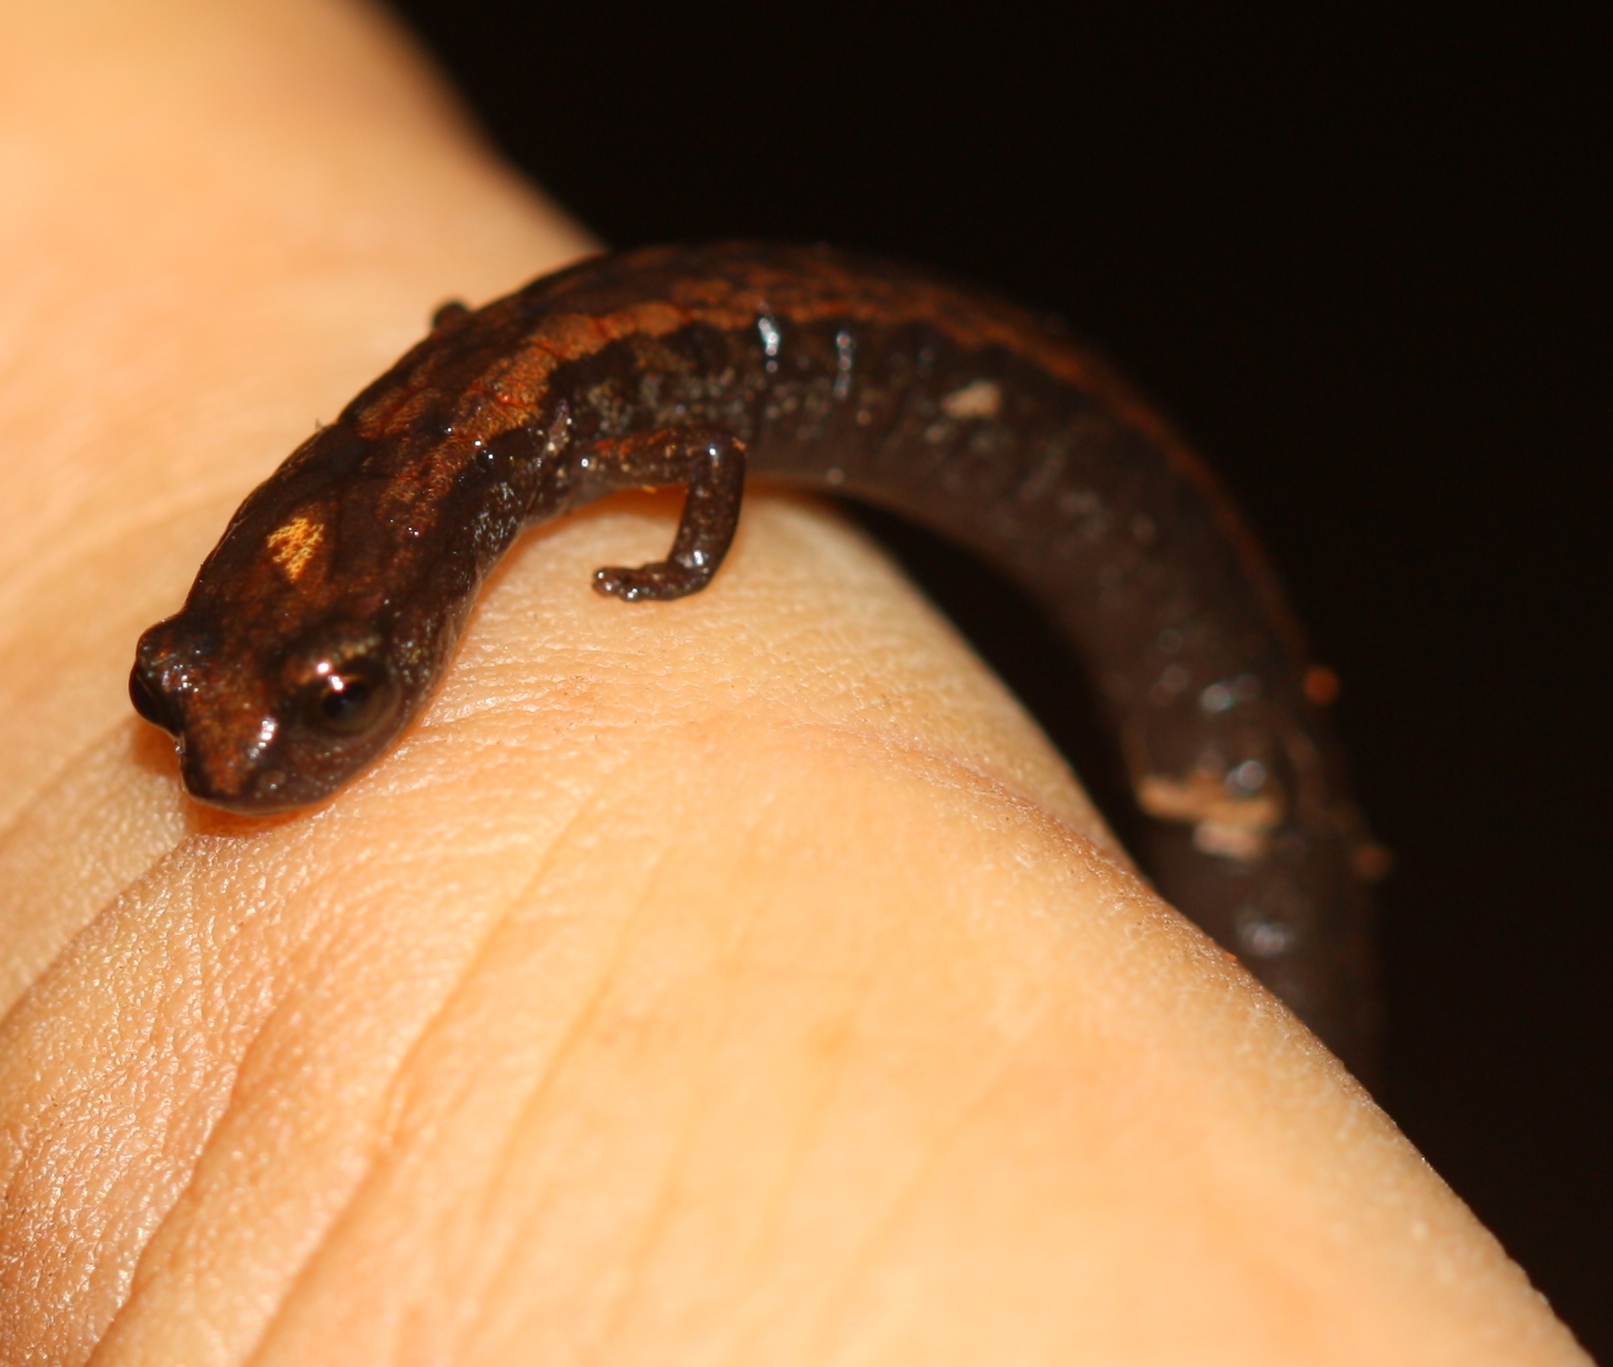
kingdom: Animalia
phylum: Chordata
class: Amphibia
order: Caudata
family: Plethodontidae
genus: Batrachoseps
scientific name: Batrachoseps attenuatus
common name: California slender salamander
